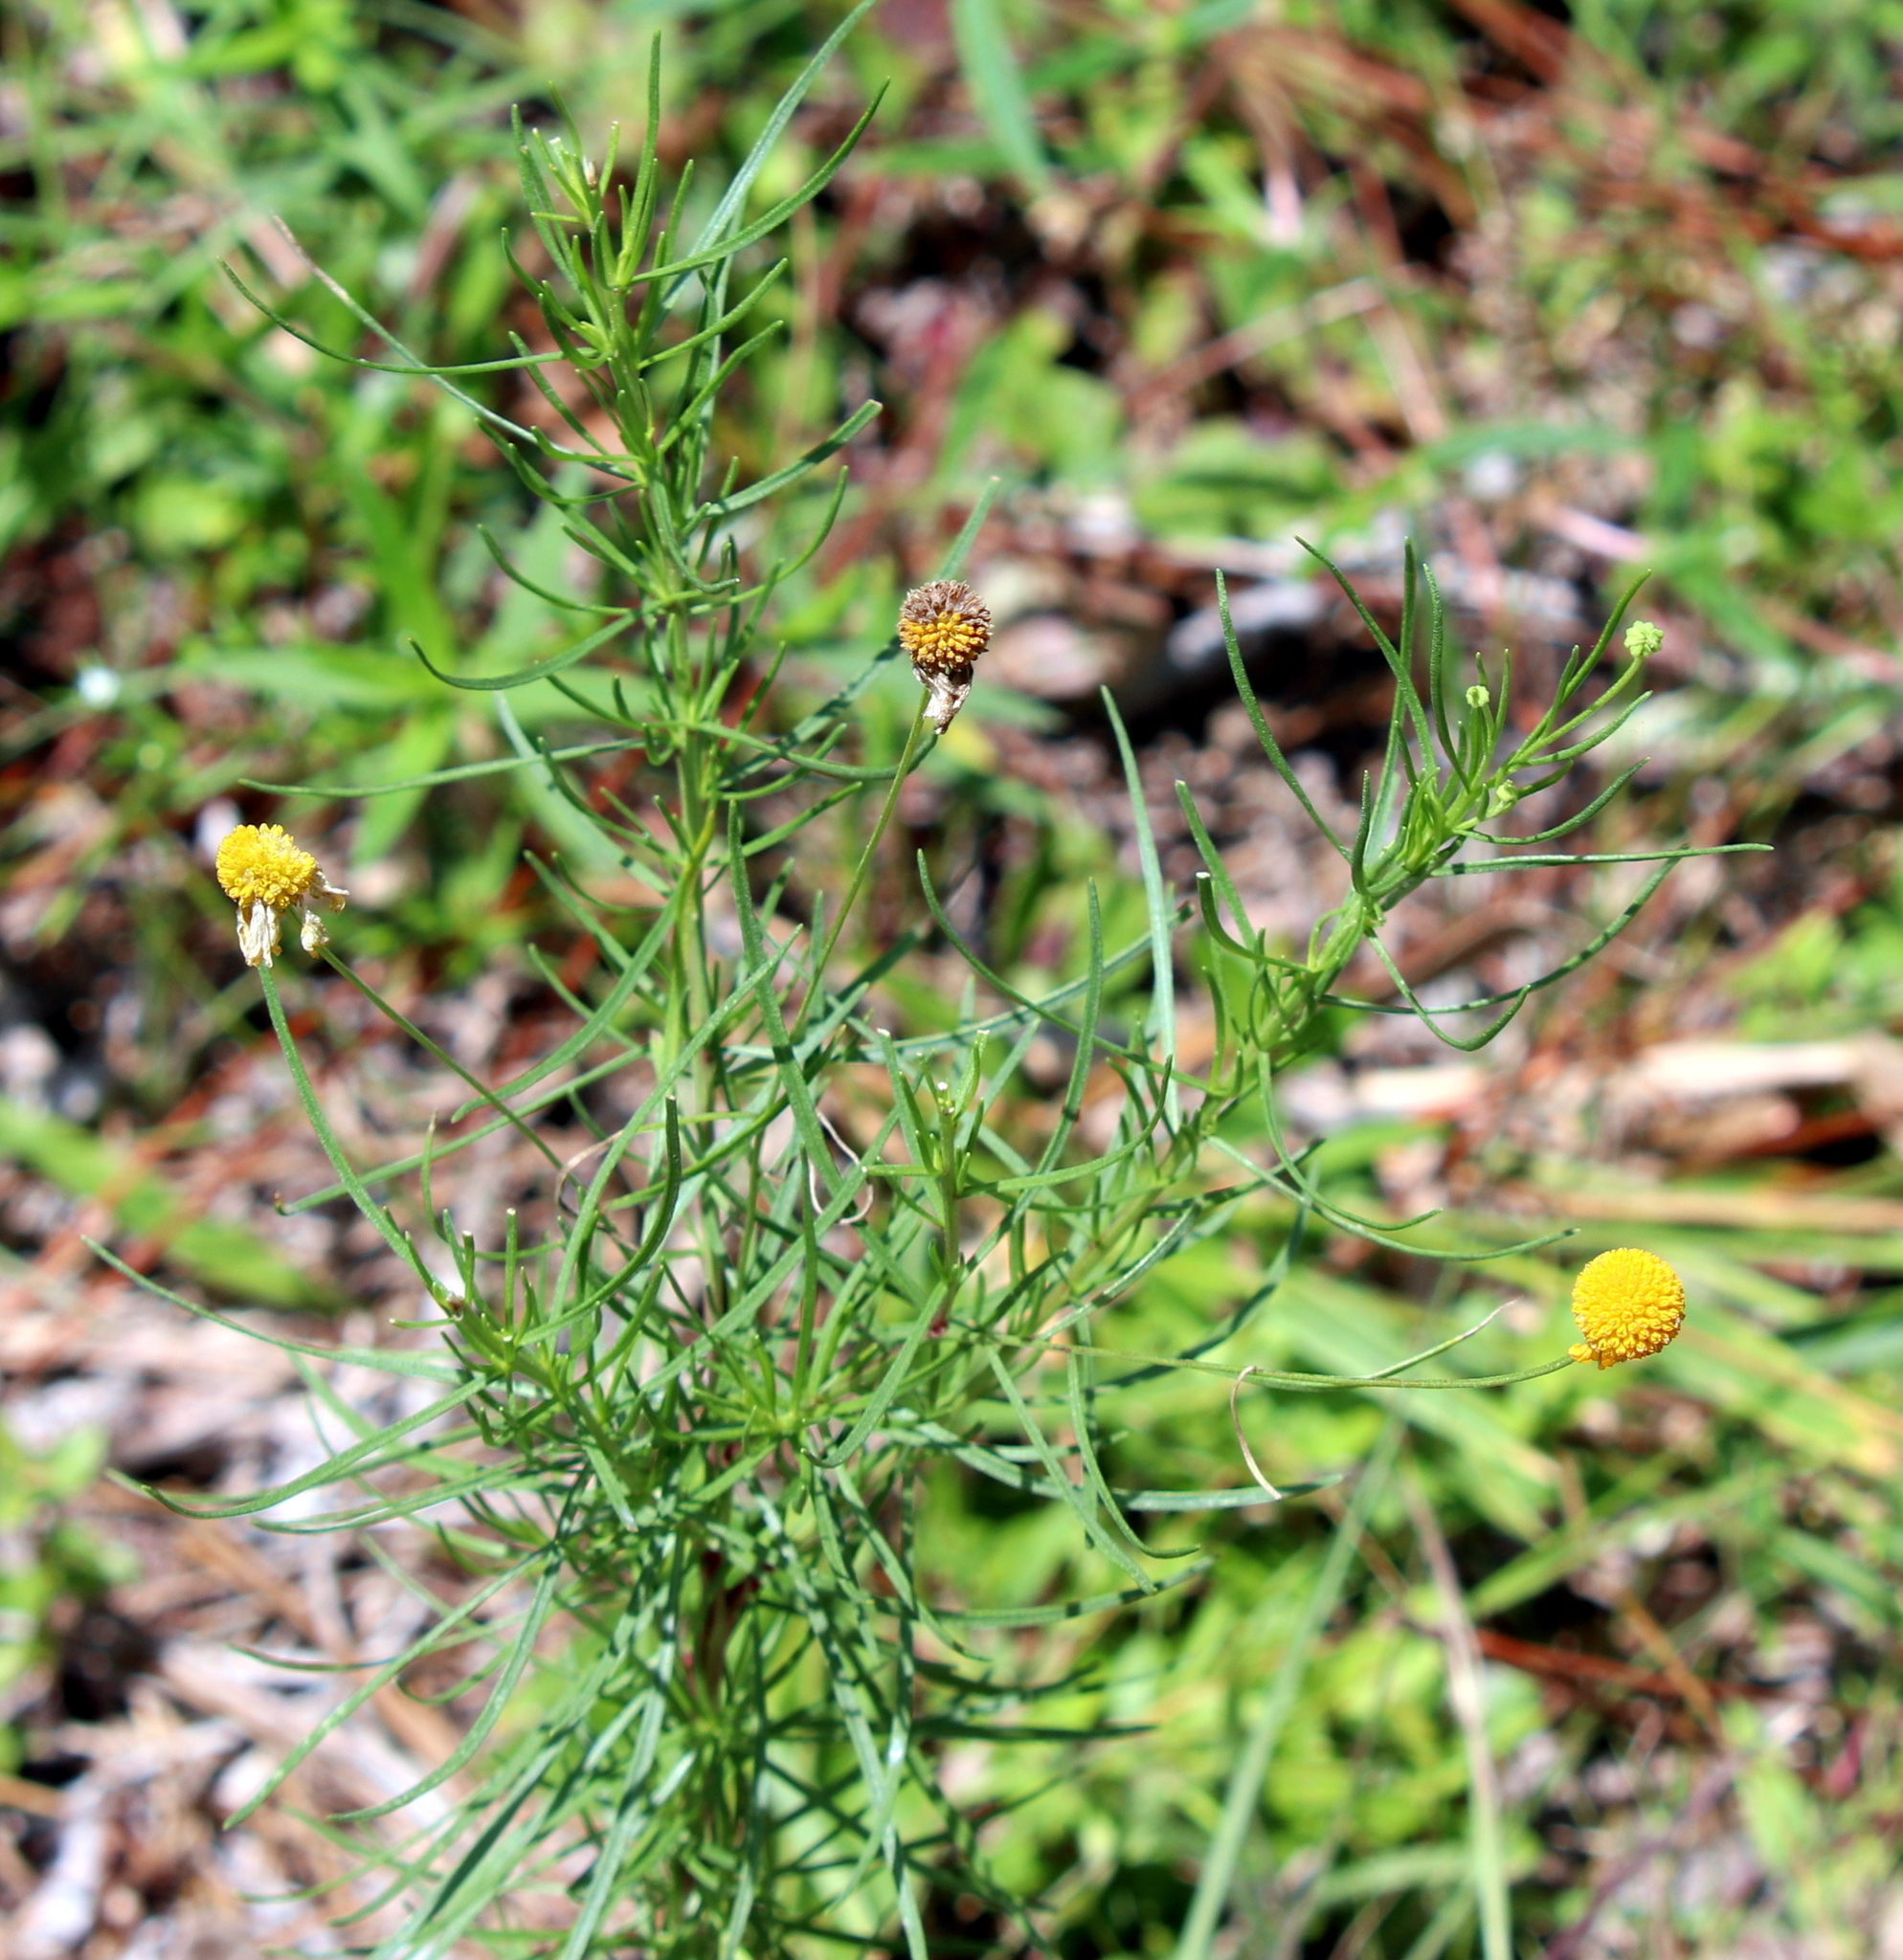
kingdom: Plantae
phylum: Tracheophyta
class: Magnoliopsida
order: Asterales
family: Asteraceae
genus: Helenium
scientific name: Helenium amarum
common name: Bitter sneezeweed
